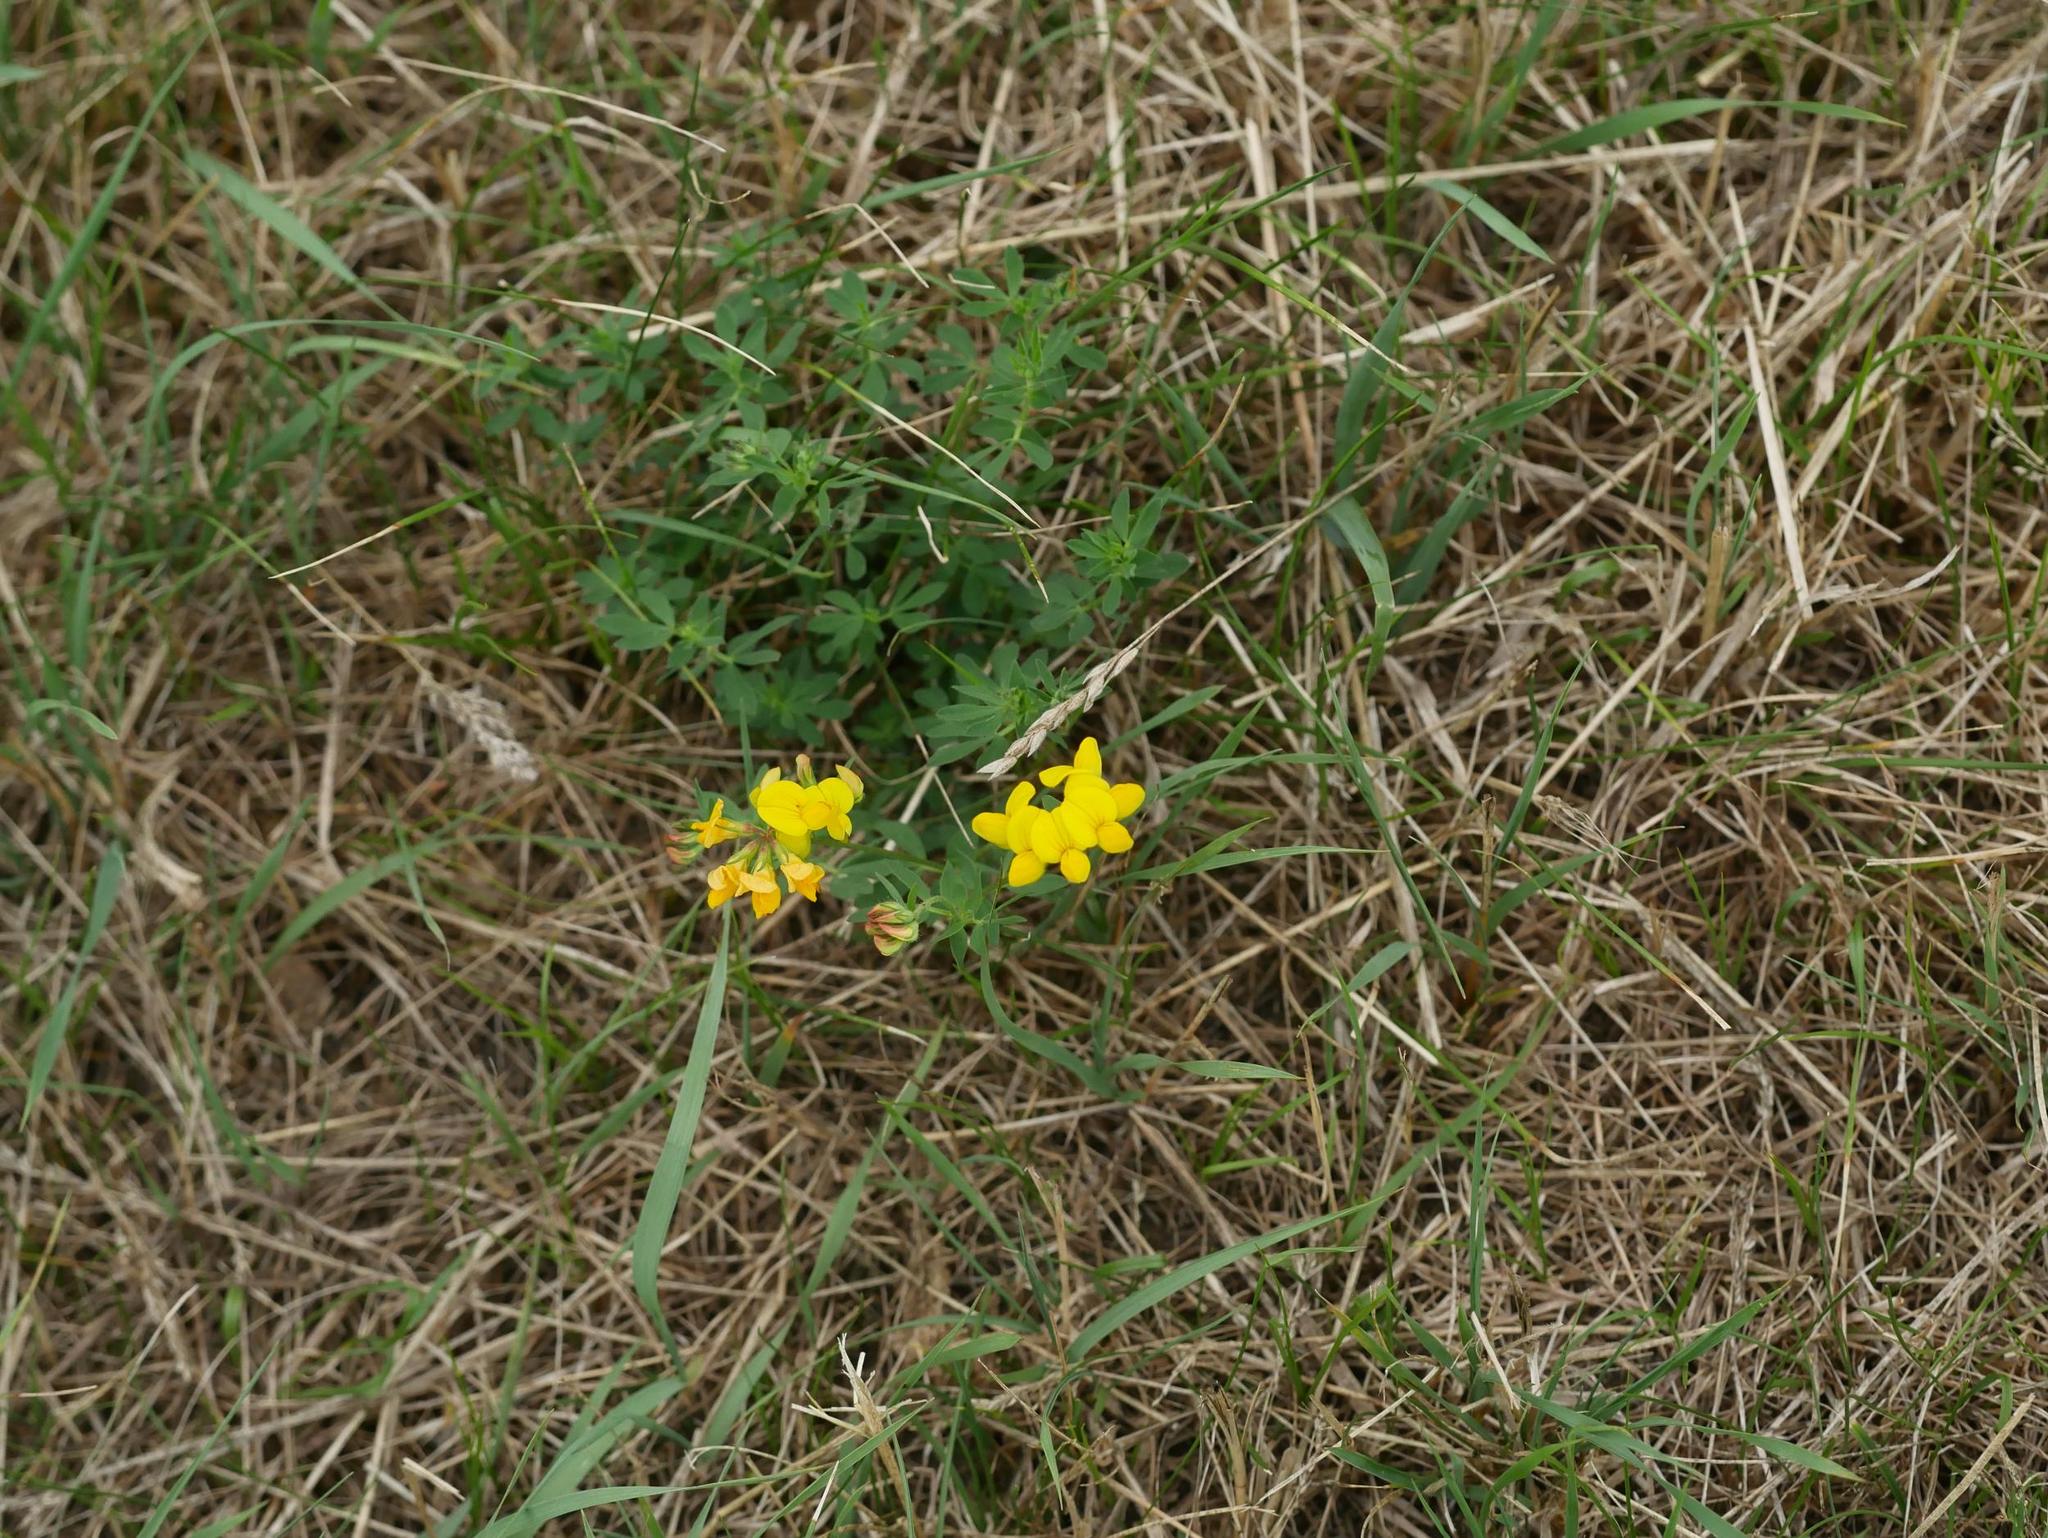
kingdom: Plantae
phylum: Tracheophyta
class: Magnoliopsida
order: Fabales
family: Fabaceae
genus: Lotus
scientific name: Lotus corniculatus
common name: Common bird's-foot-trefoil
